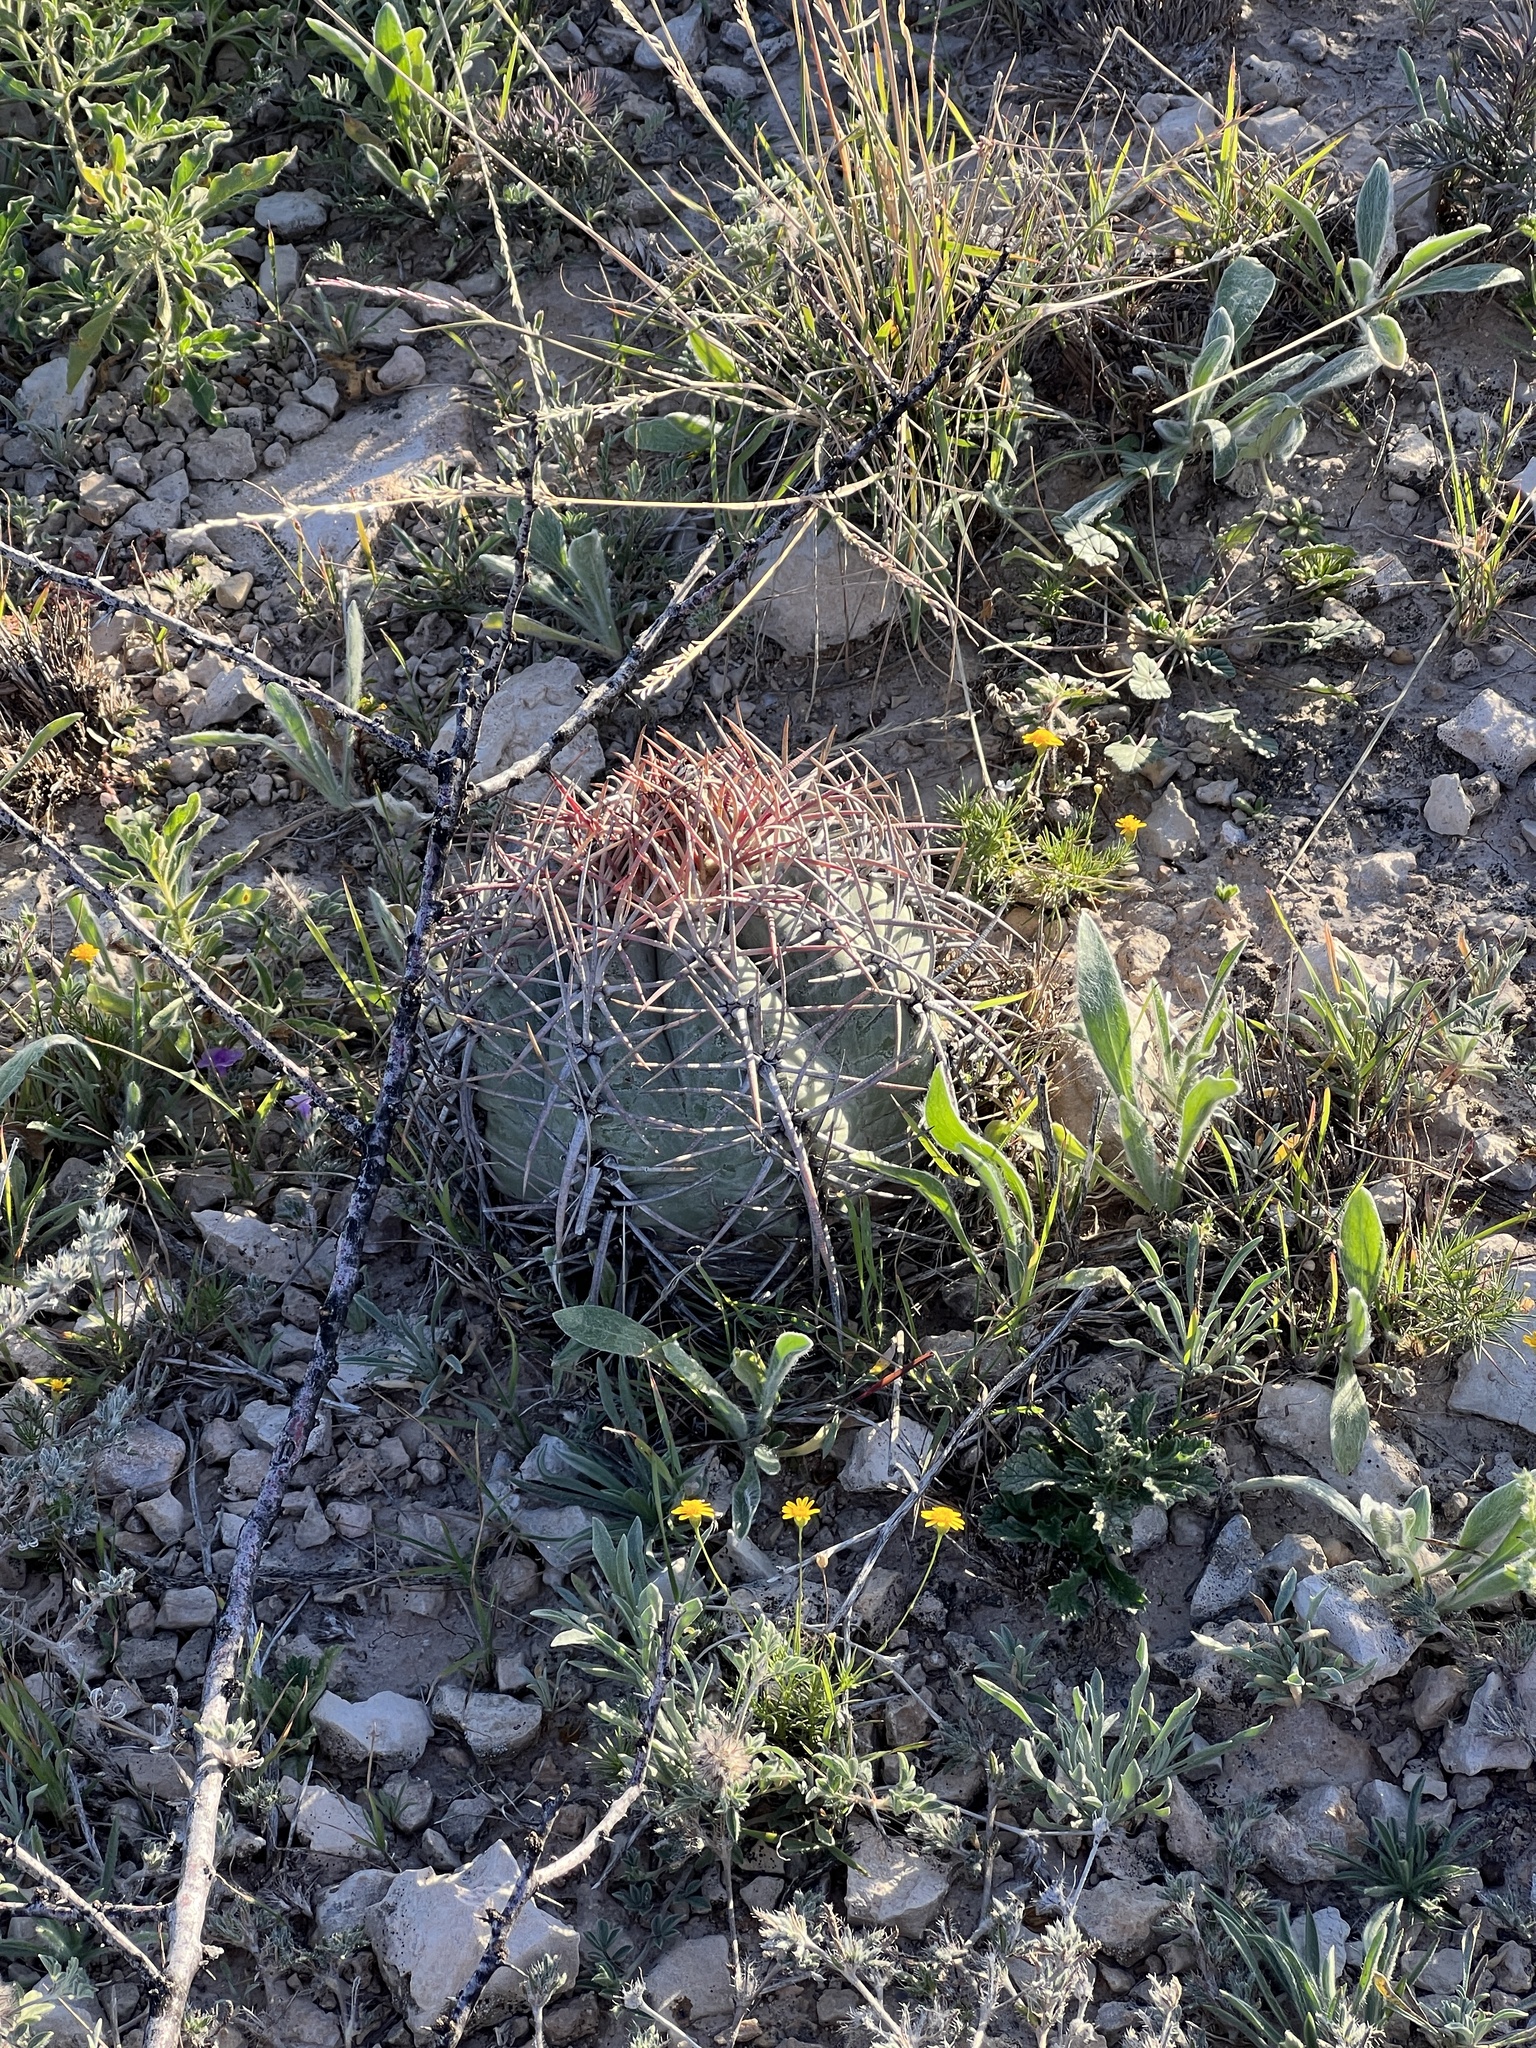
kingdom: Plantae
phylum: Tracheophyta
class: Magnoliopsida
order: Caryophyllales
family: Cactaceae
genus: Echinocactus
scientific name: Echinocactus horizonthalonius
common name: Devilshead
